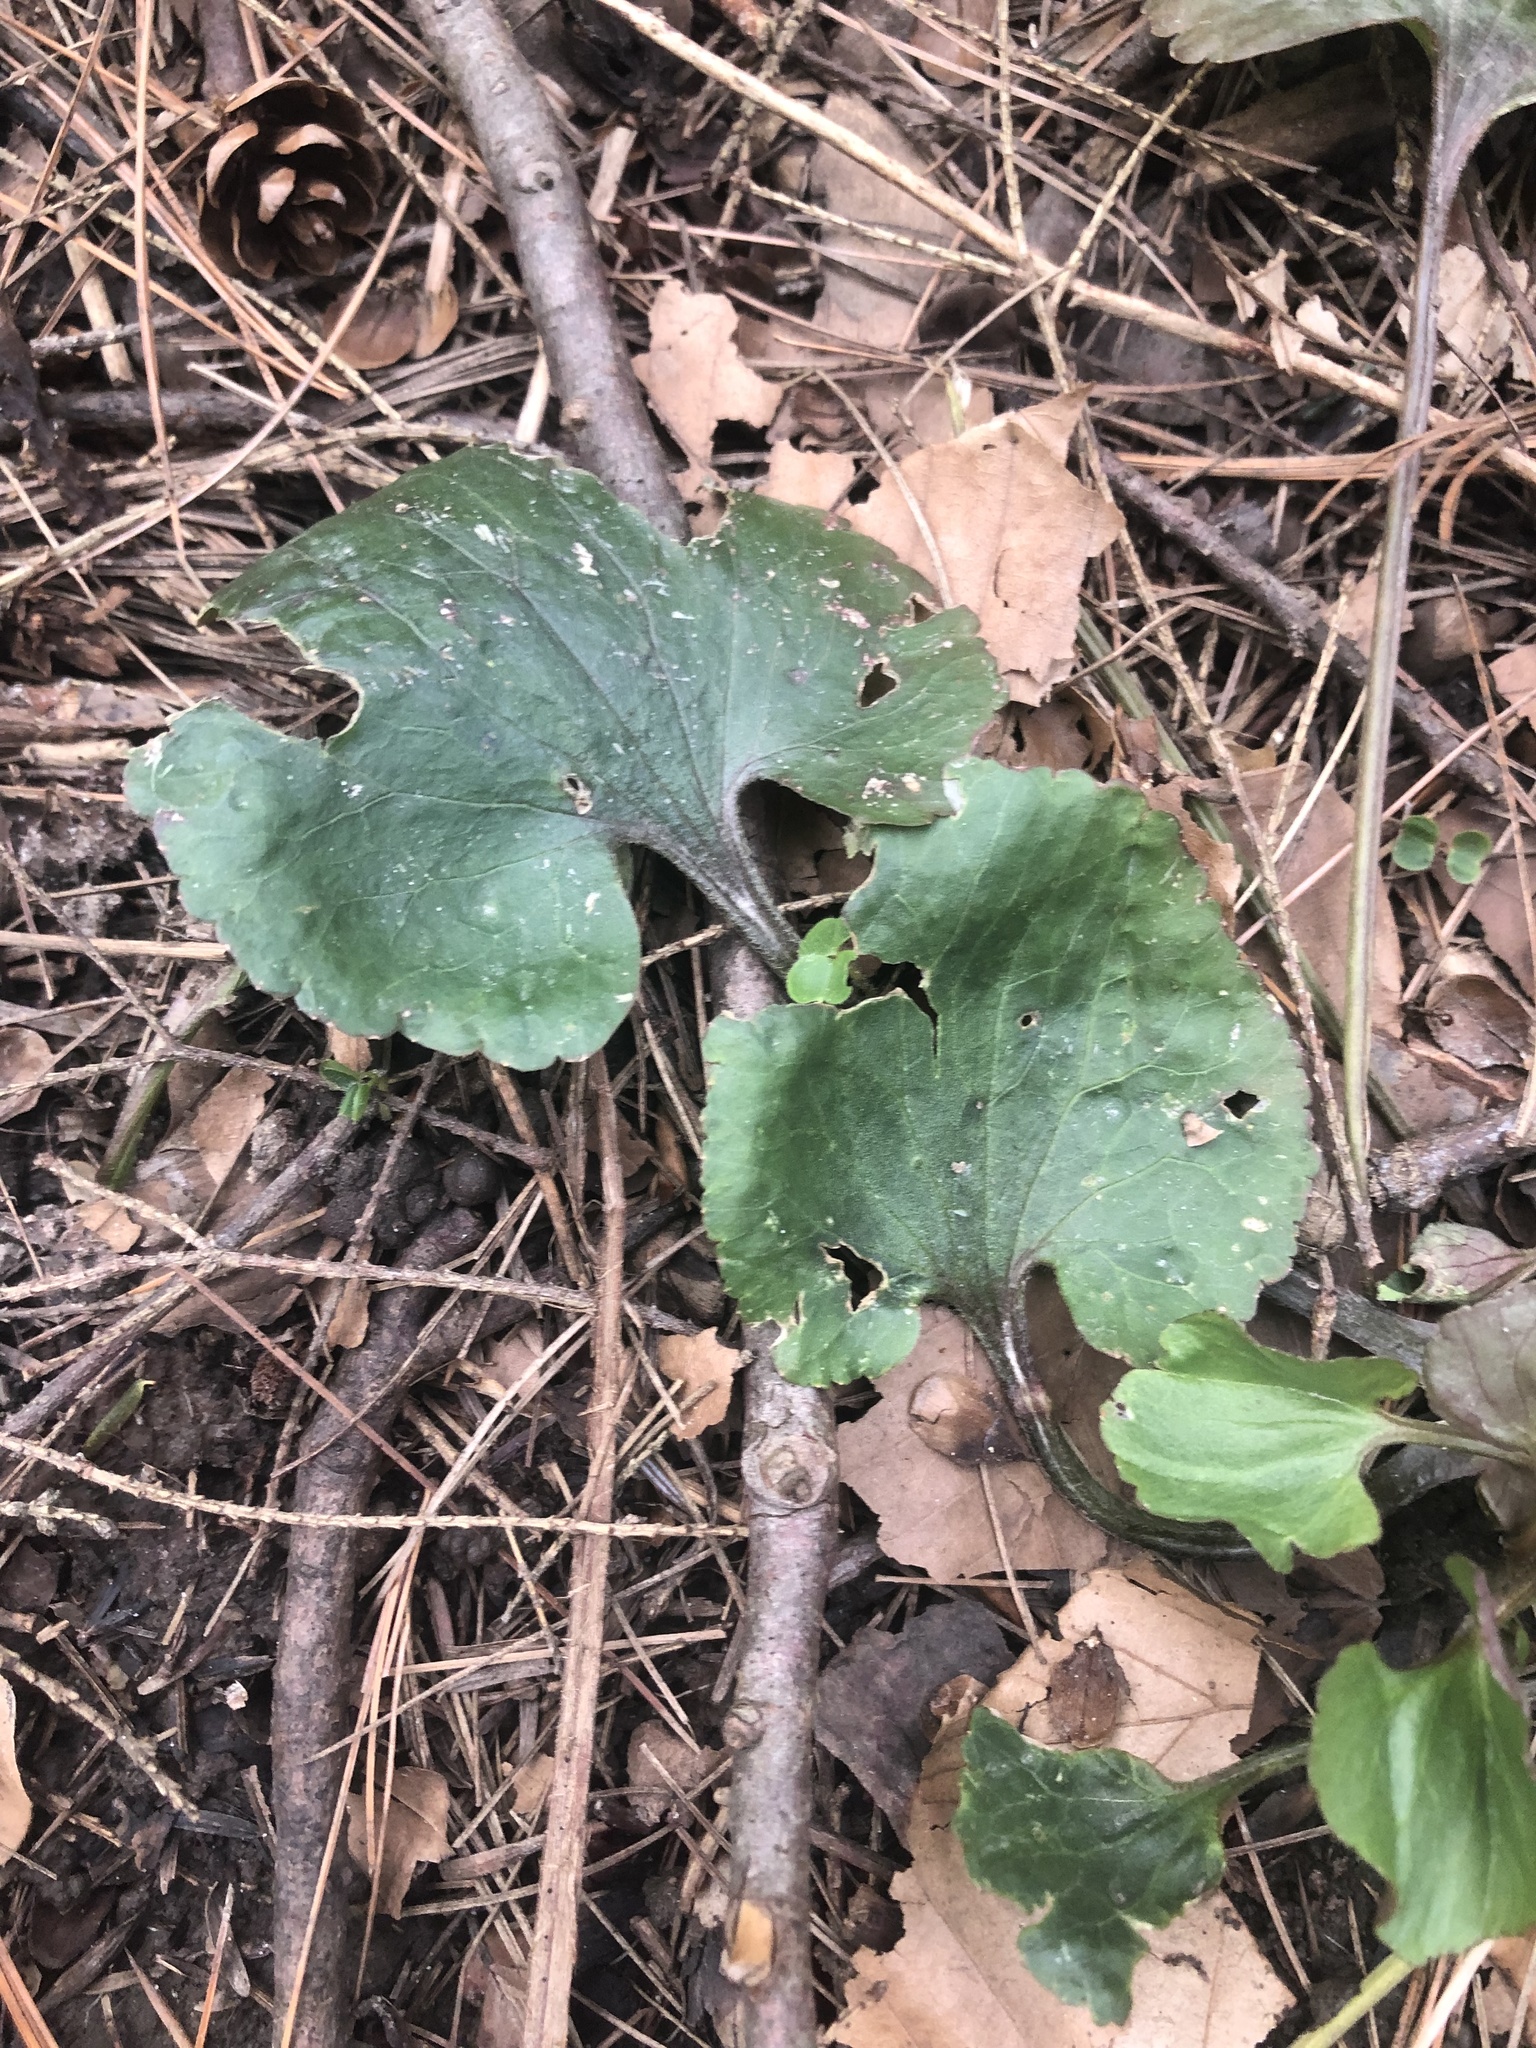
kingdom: Plantae
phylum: Tracheophyta
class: Magnoliopsida
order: Ranunculales
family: Ranunculaceae
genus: Ranunculus
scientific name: Ranunculus abortivus
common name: Early wood buttercup
